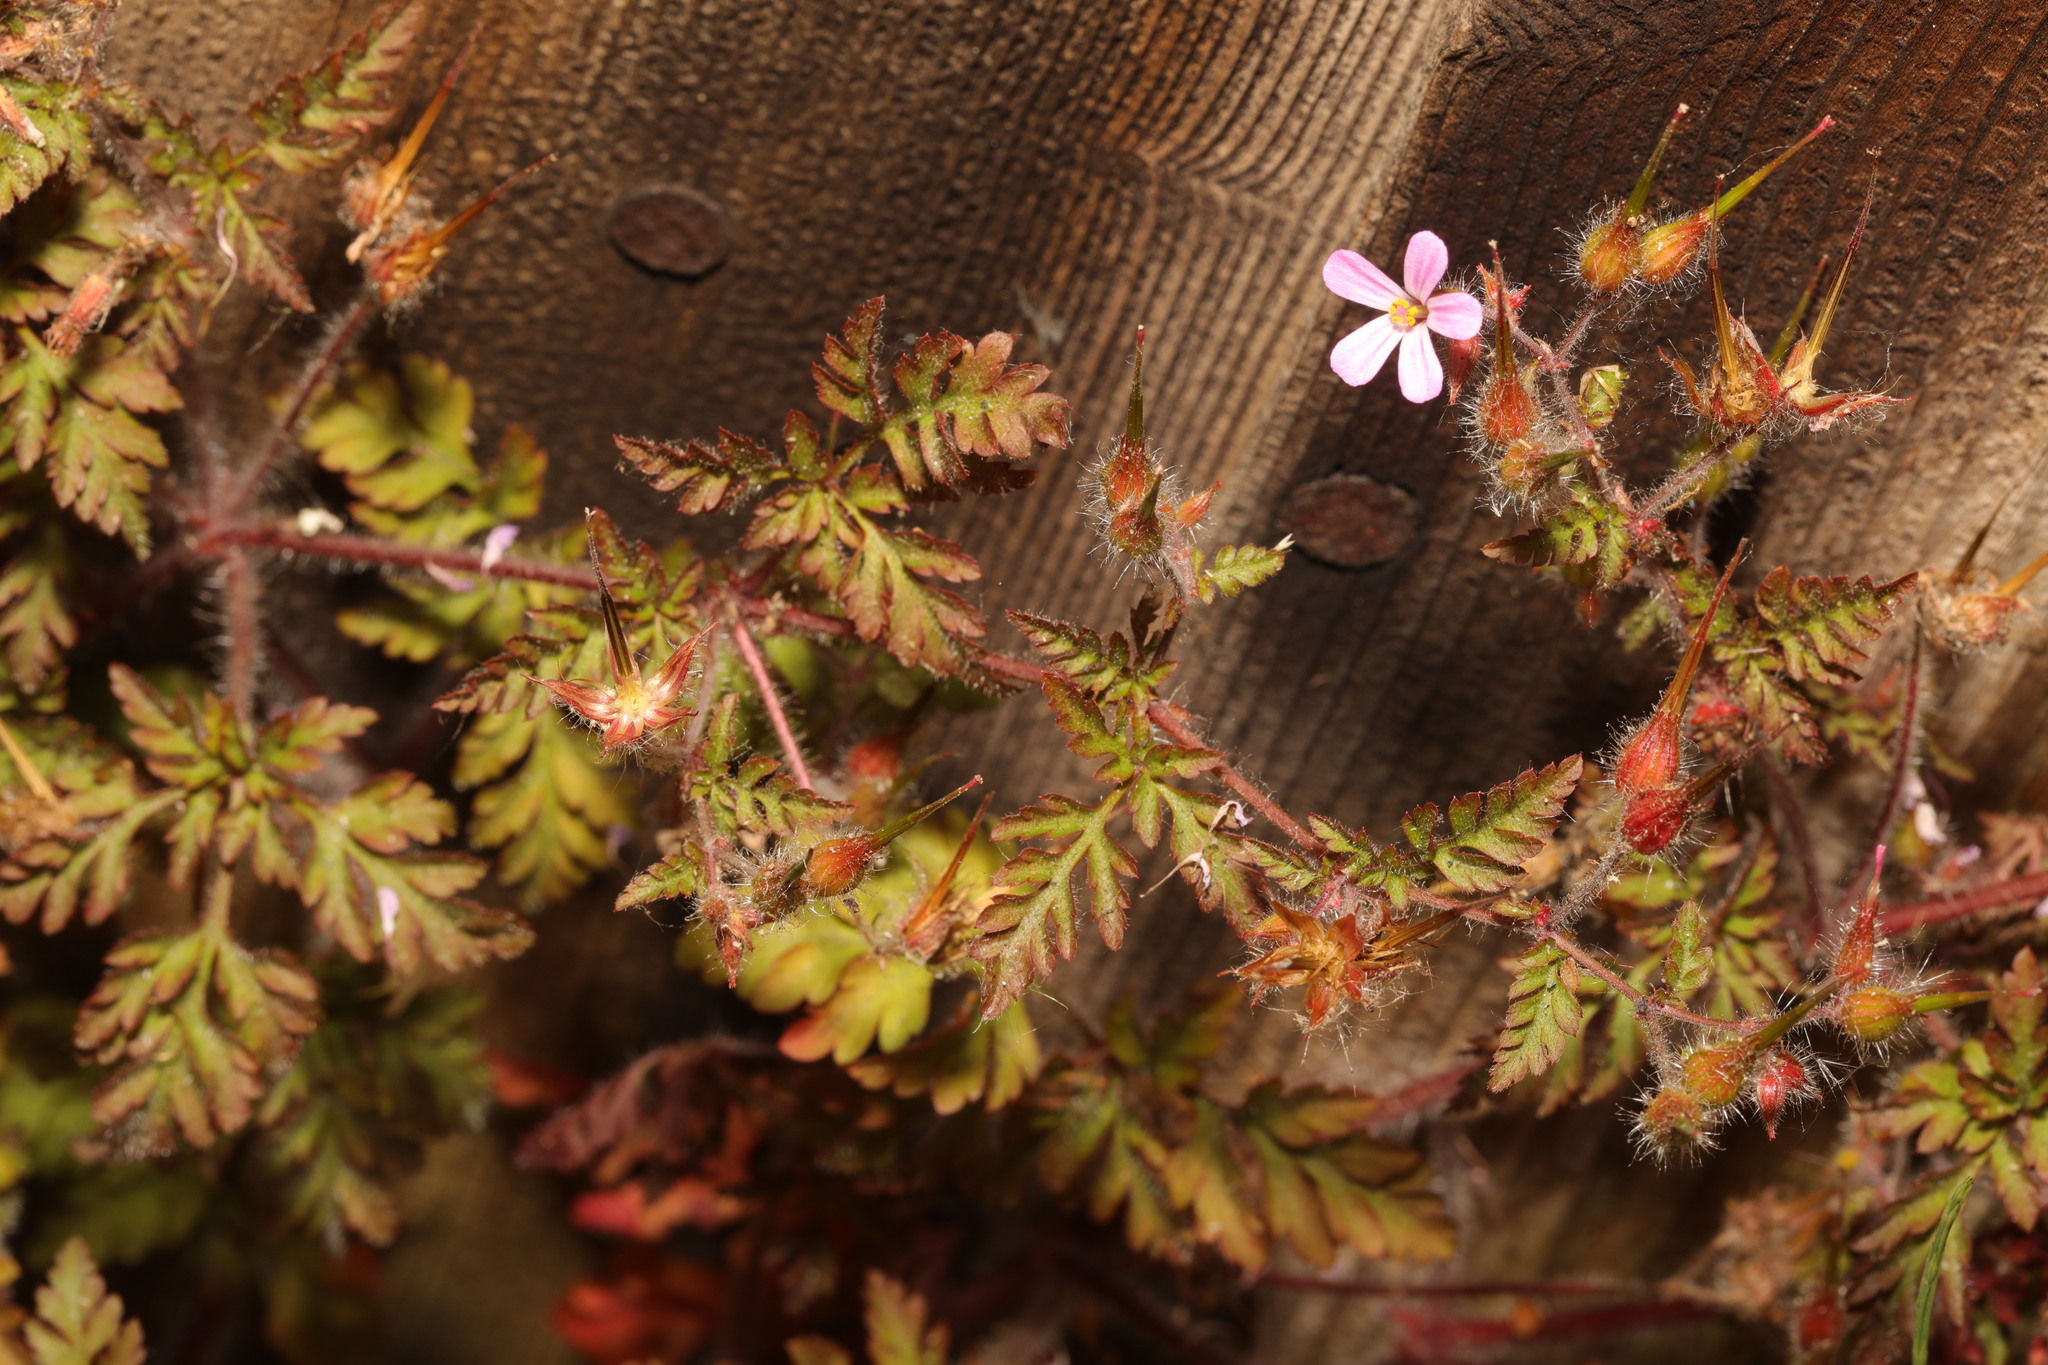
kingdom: Plantae
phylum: Tracheophyta
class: Magnoliopsida
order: Geraniales
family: Geraniaceae
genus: Geranium
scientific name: Geranium robertianum
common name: Herb-robert
